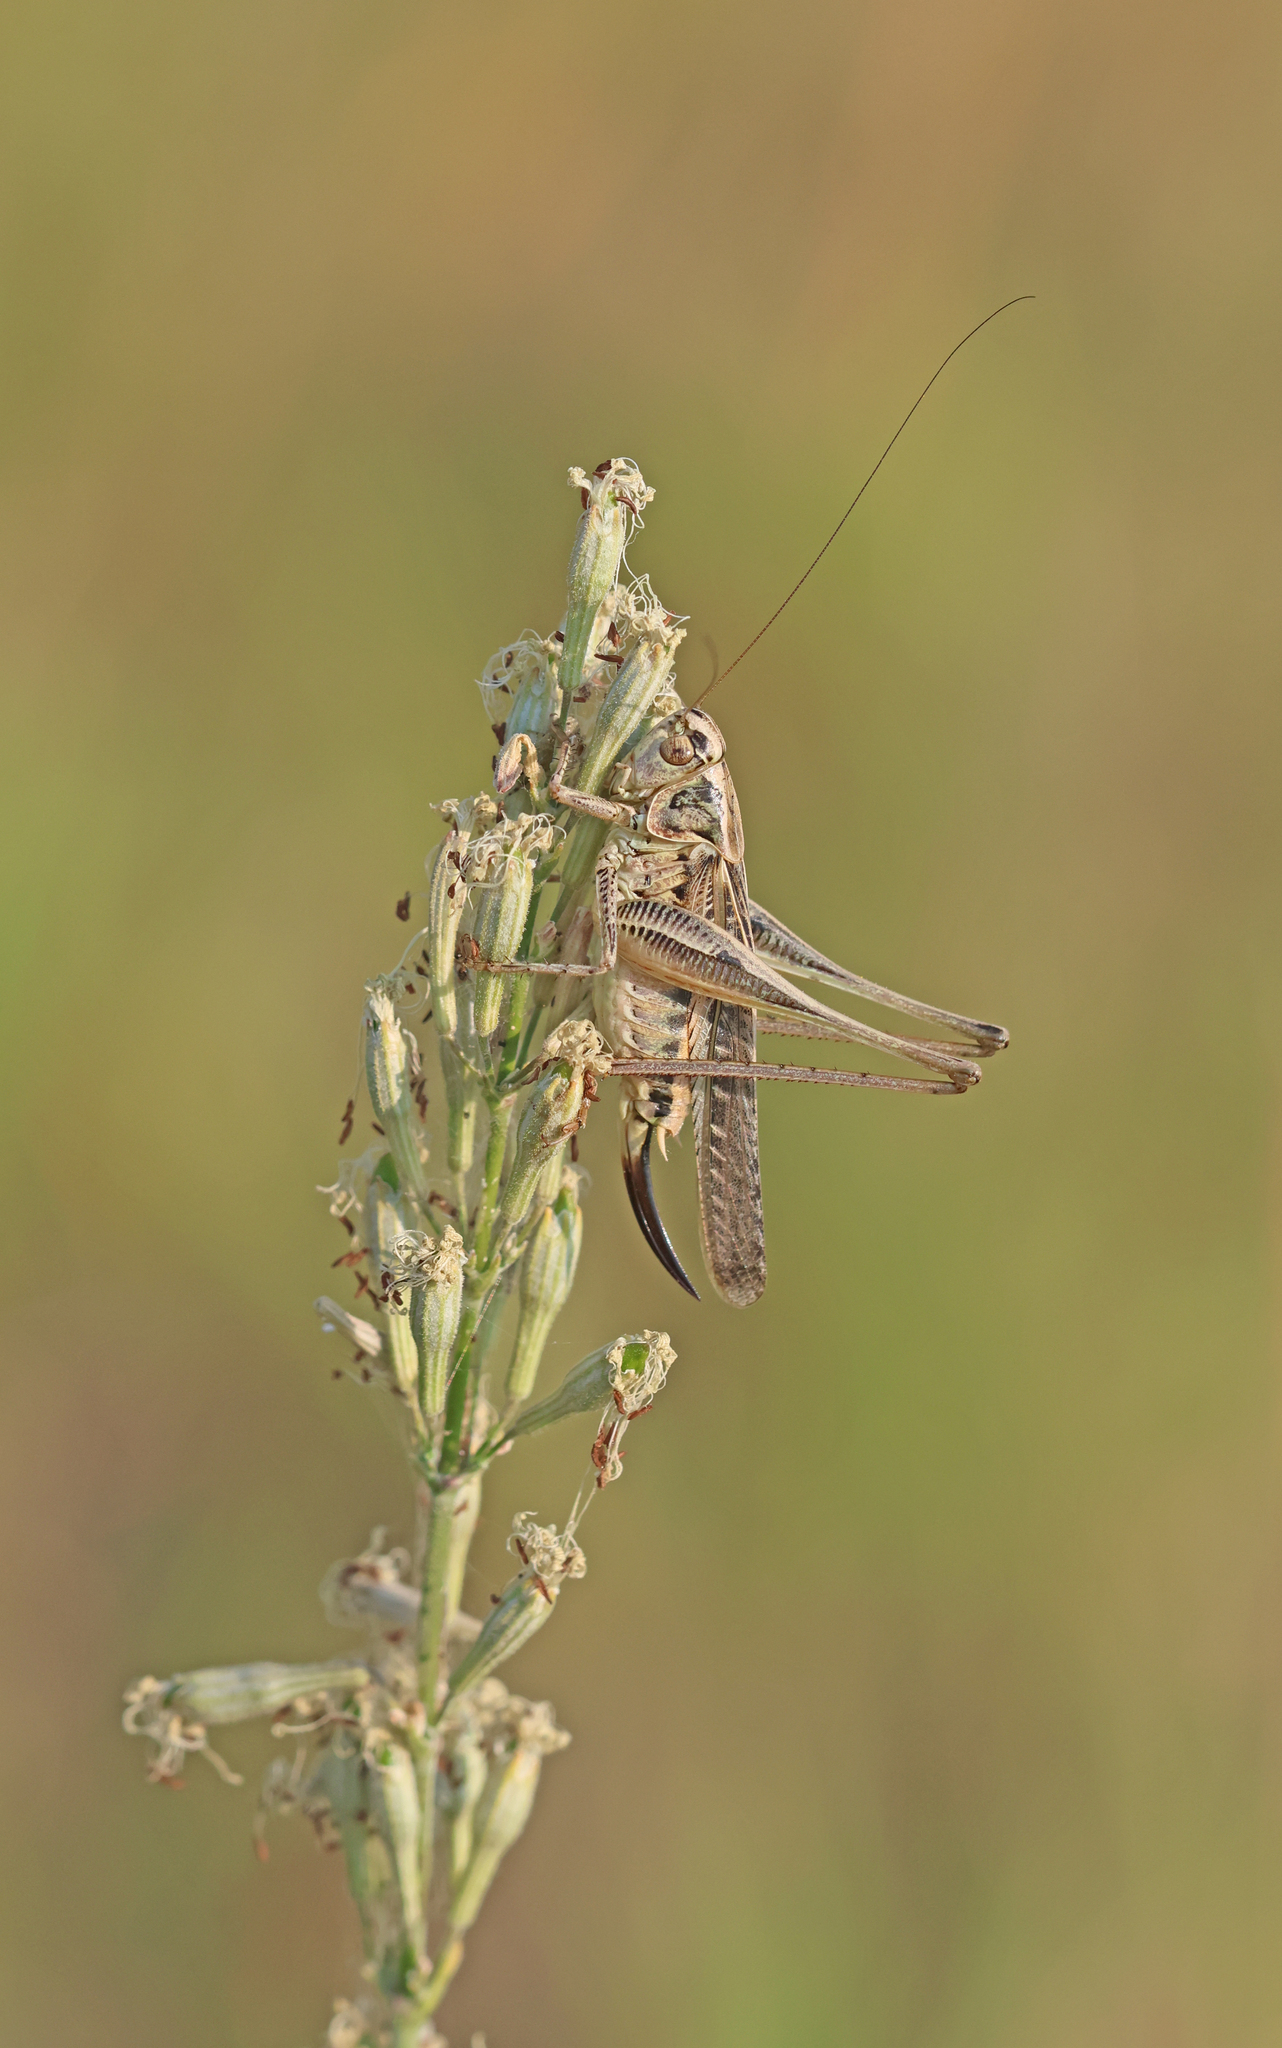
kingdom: Animalia
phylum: Arthropoda
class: Insecta
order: Orthoptera
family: Tettigoniidae
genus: Platycleis
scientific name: Platycleis affinis
